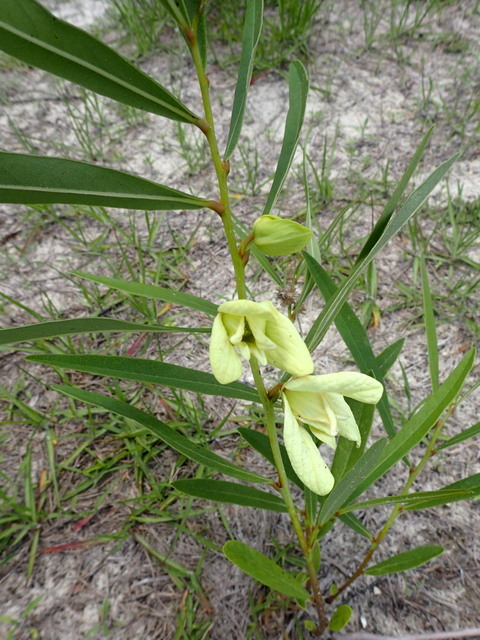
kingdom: Plantae
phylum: Tracheophyta
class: Magnoliopsida
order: Magnoliales
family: Annonaceae
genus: Asimina
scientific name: Asimina longifolia
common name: Polecatbush
